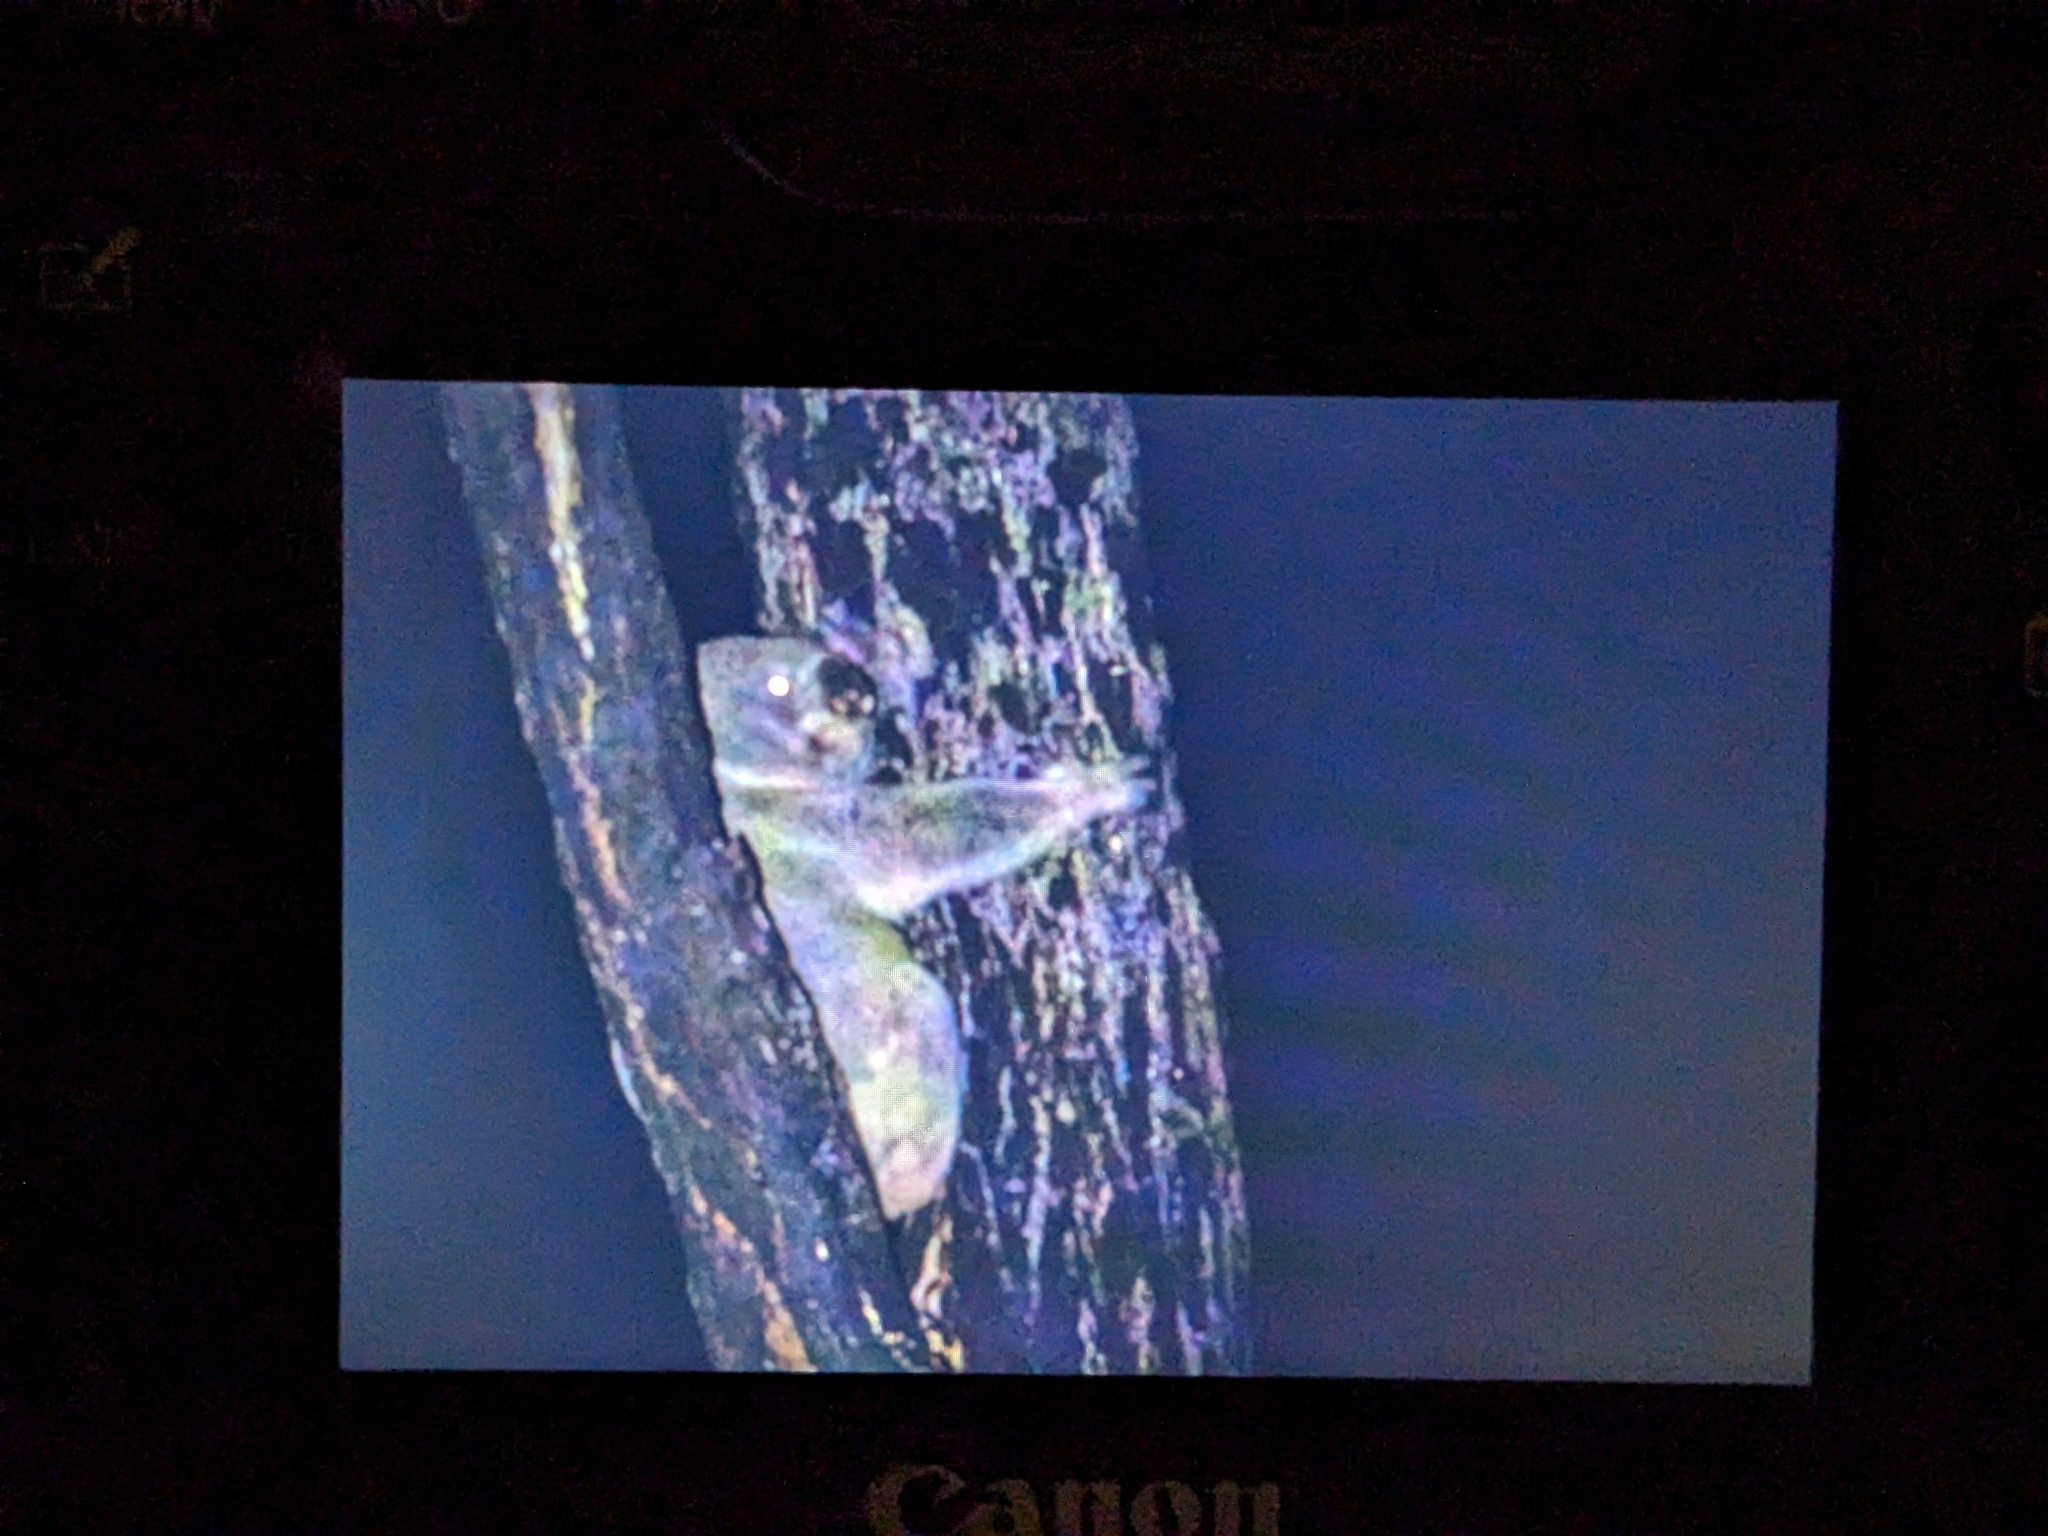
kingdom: Animalia
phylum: Chordata
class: Mammalia
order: Diprotodontia
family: Phascolarctidae
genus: Phascolarctos
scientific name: Phascolarctos cinereus
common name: Koala
